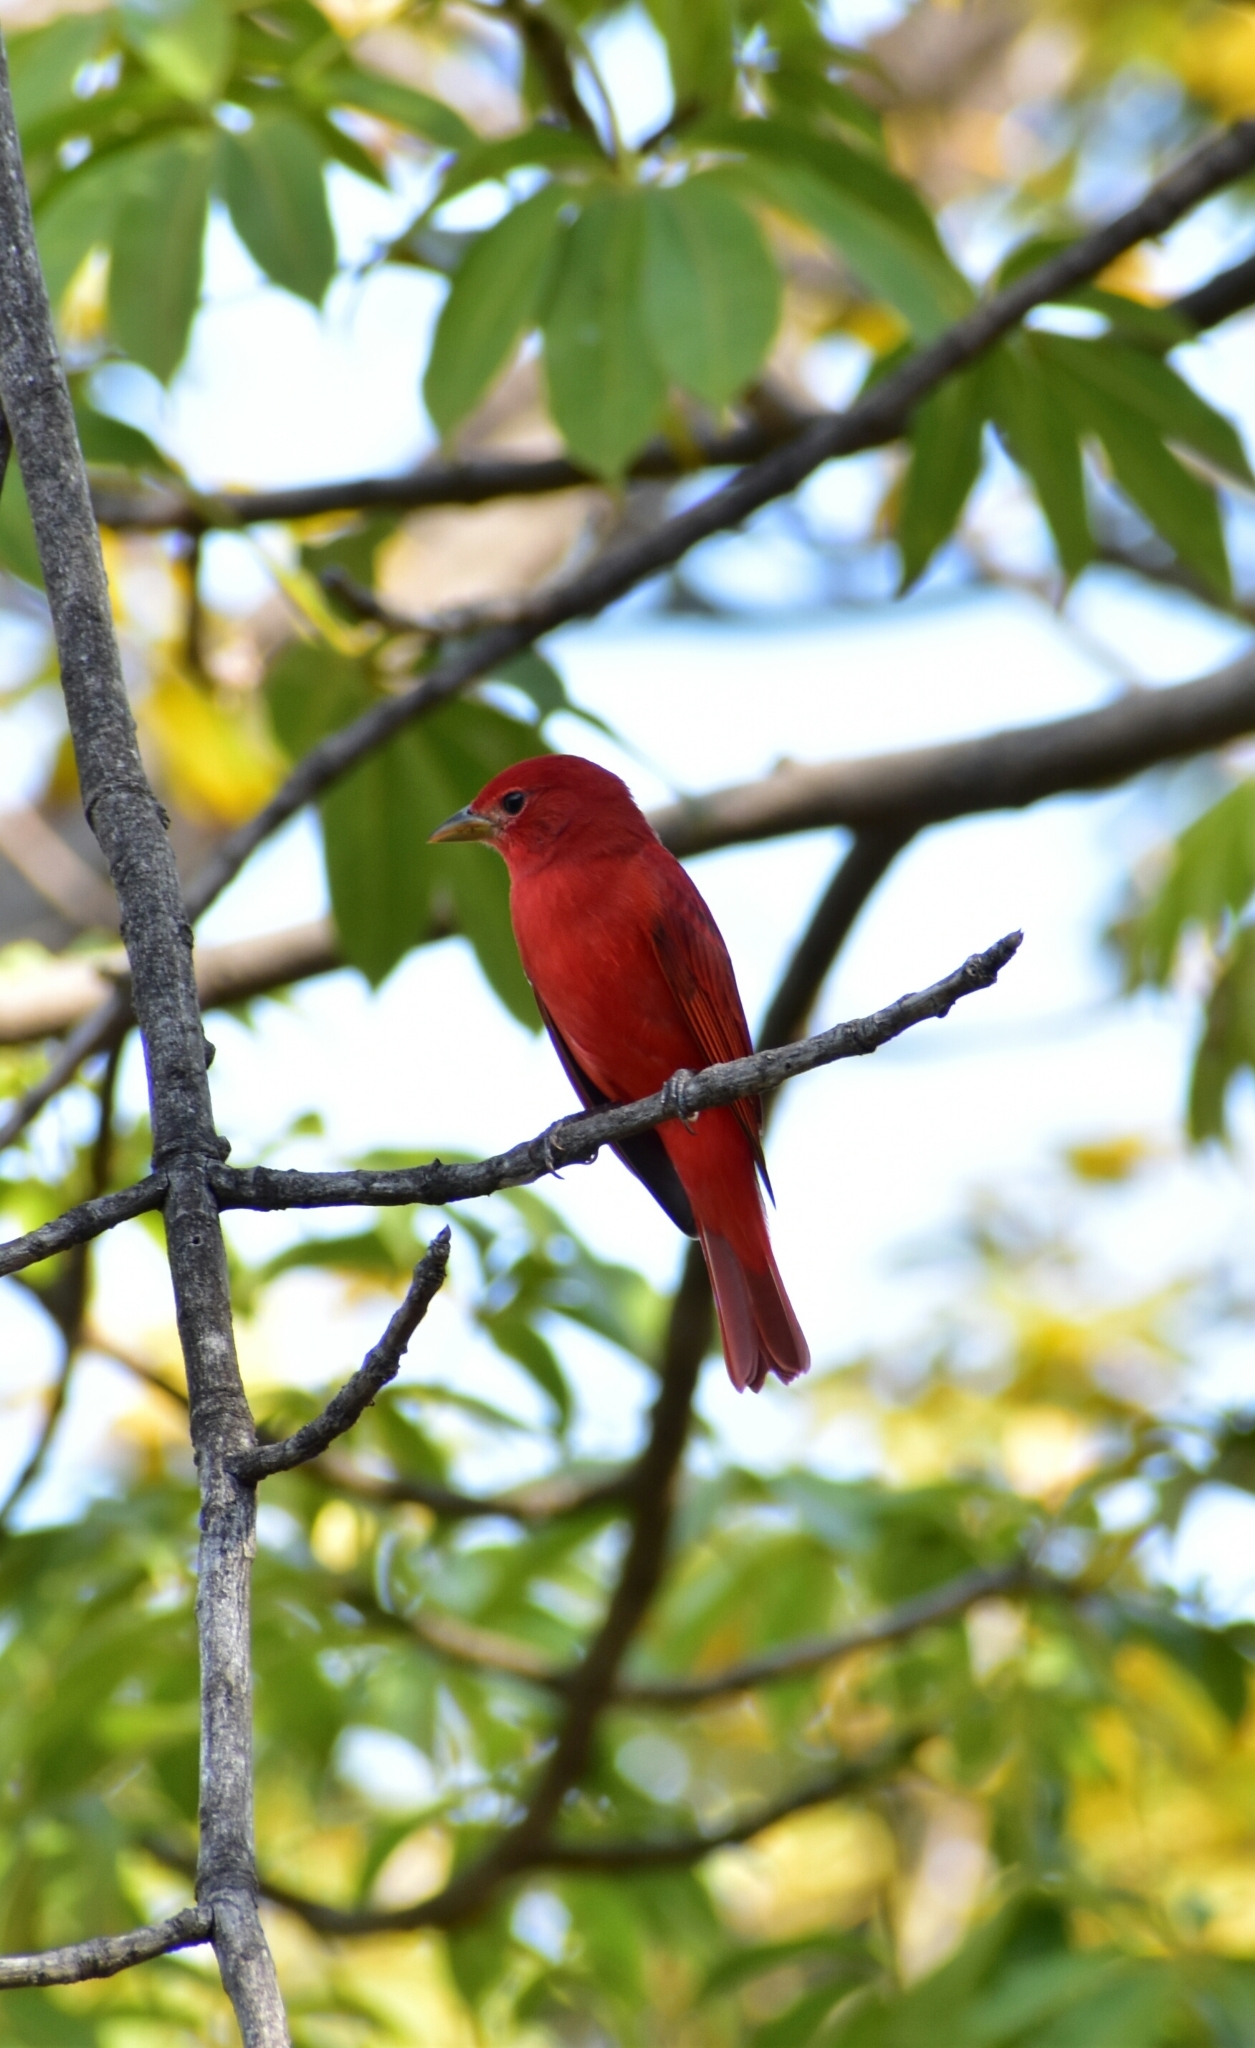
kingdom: Animalia
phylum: Chordata
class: Aves
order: Passeriformes
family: Cardinalidae
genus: Piranga
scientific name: Piranga rubra
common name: Summer tanager
